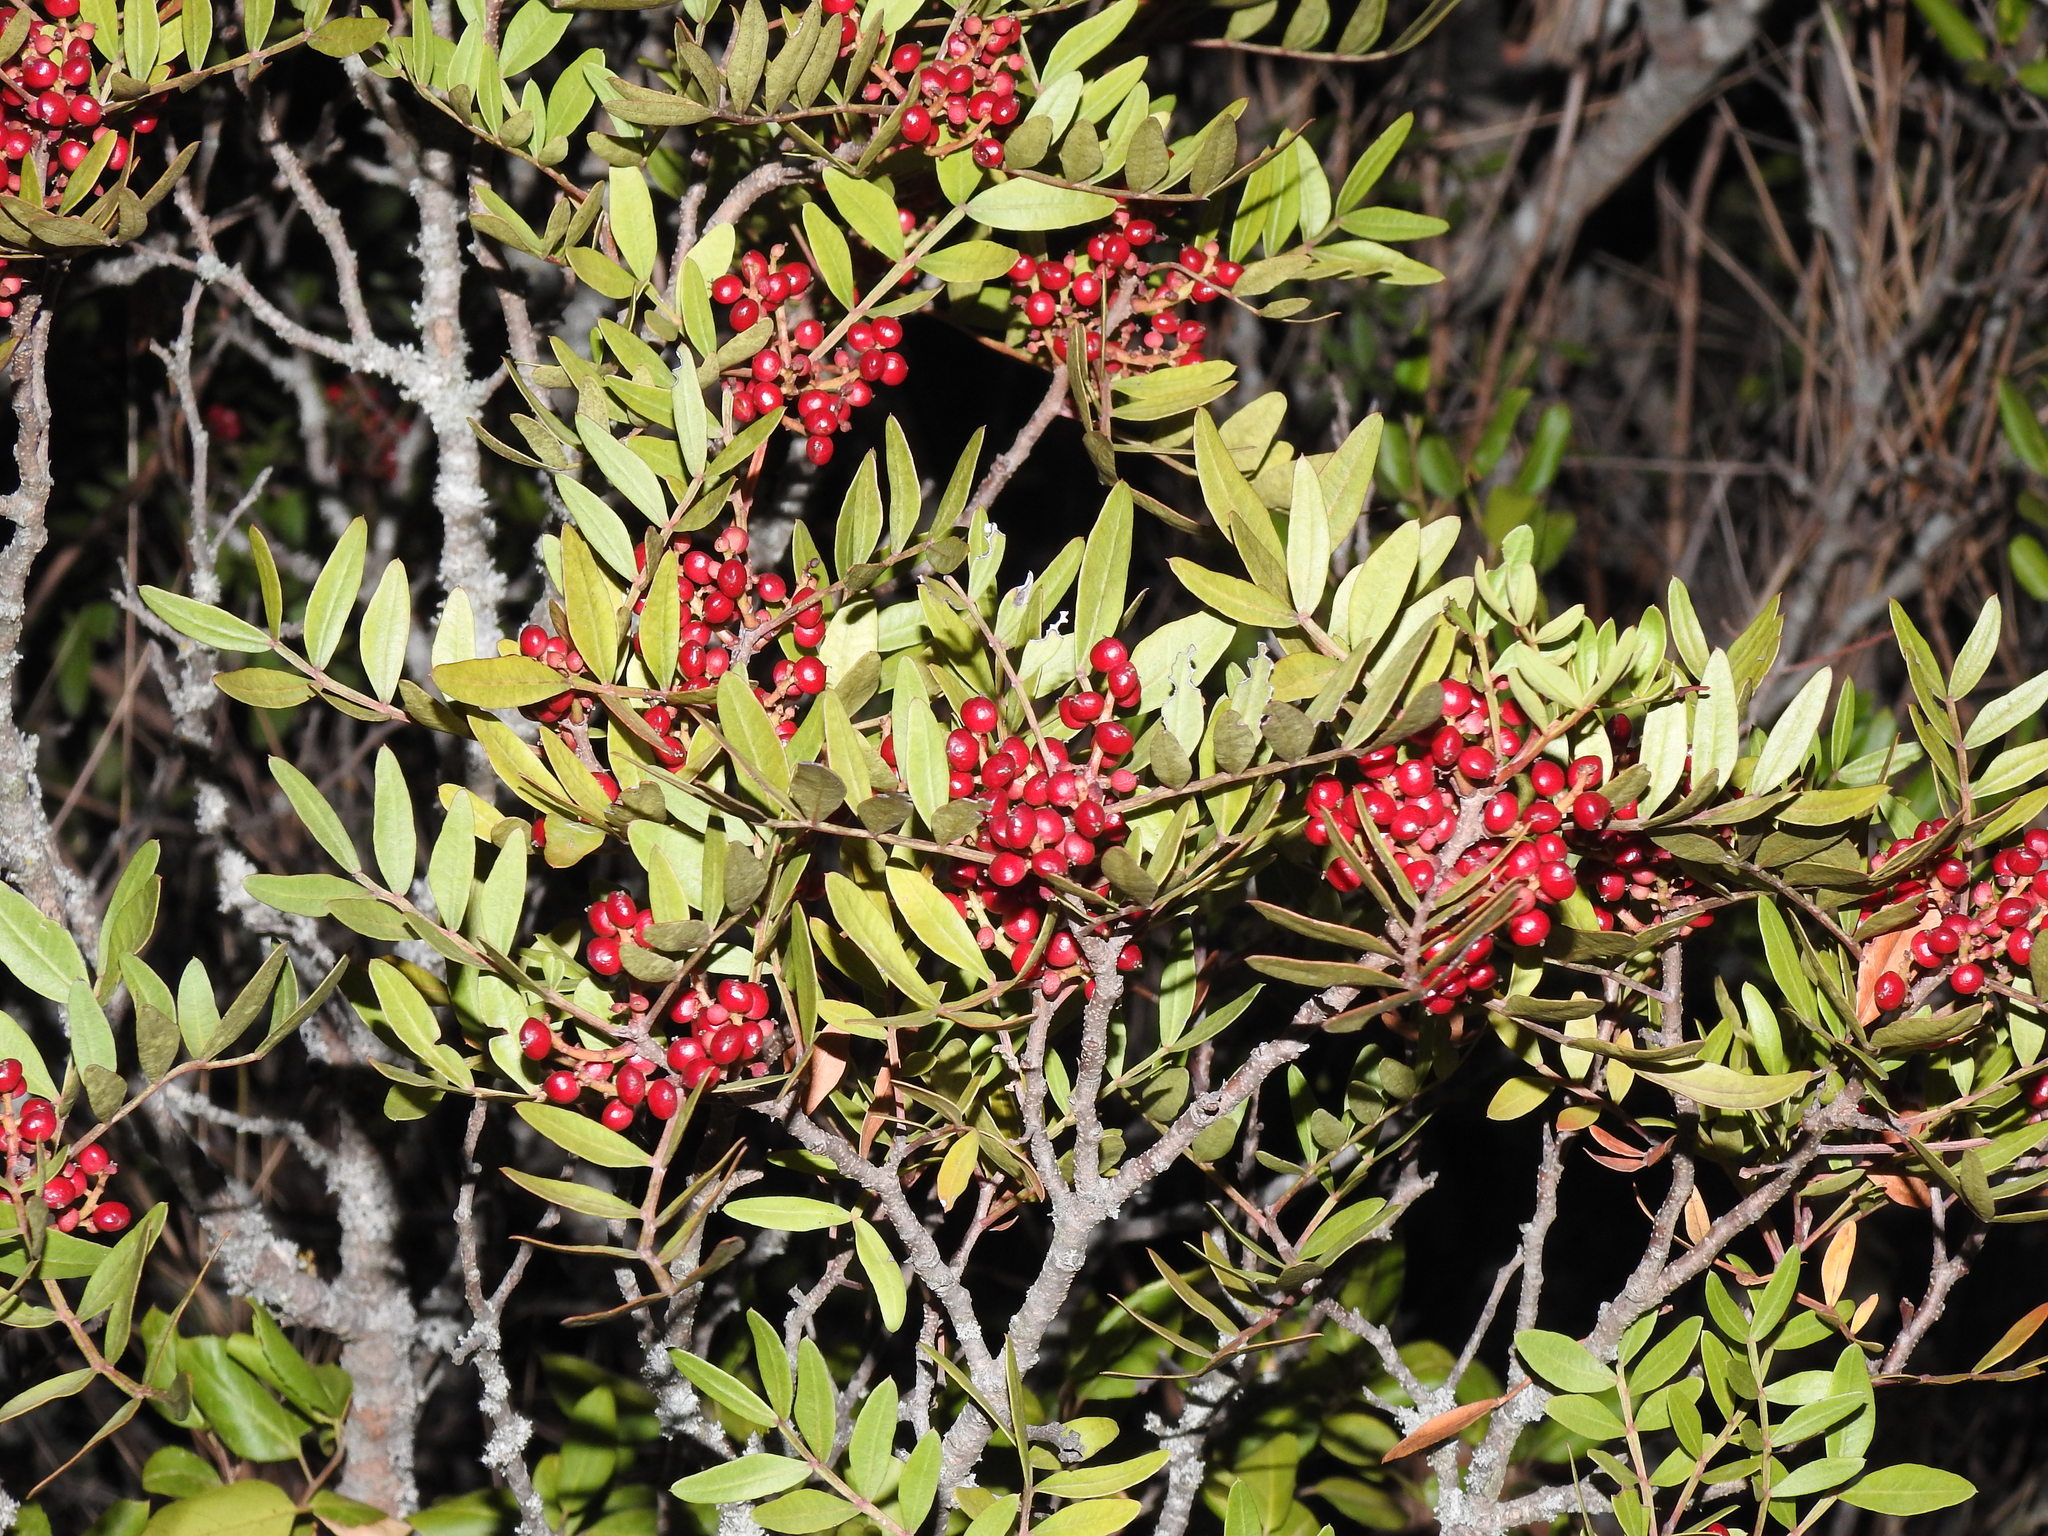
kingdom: Plantae
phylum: Tracheophyta
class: Magnoliopsida
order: Sapindales
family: Anacardiaceae
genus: Pistacia
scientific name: Pistacia lentiscus
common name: Lentisk
